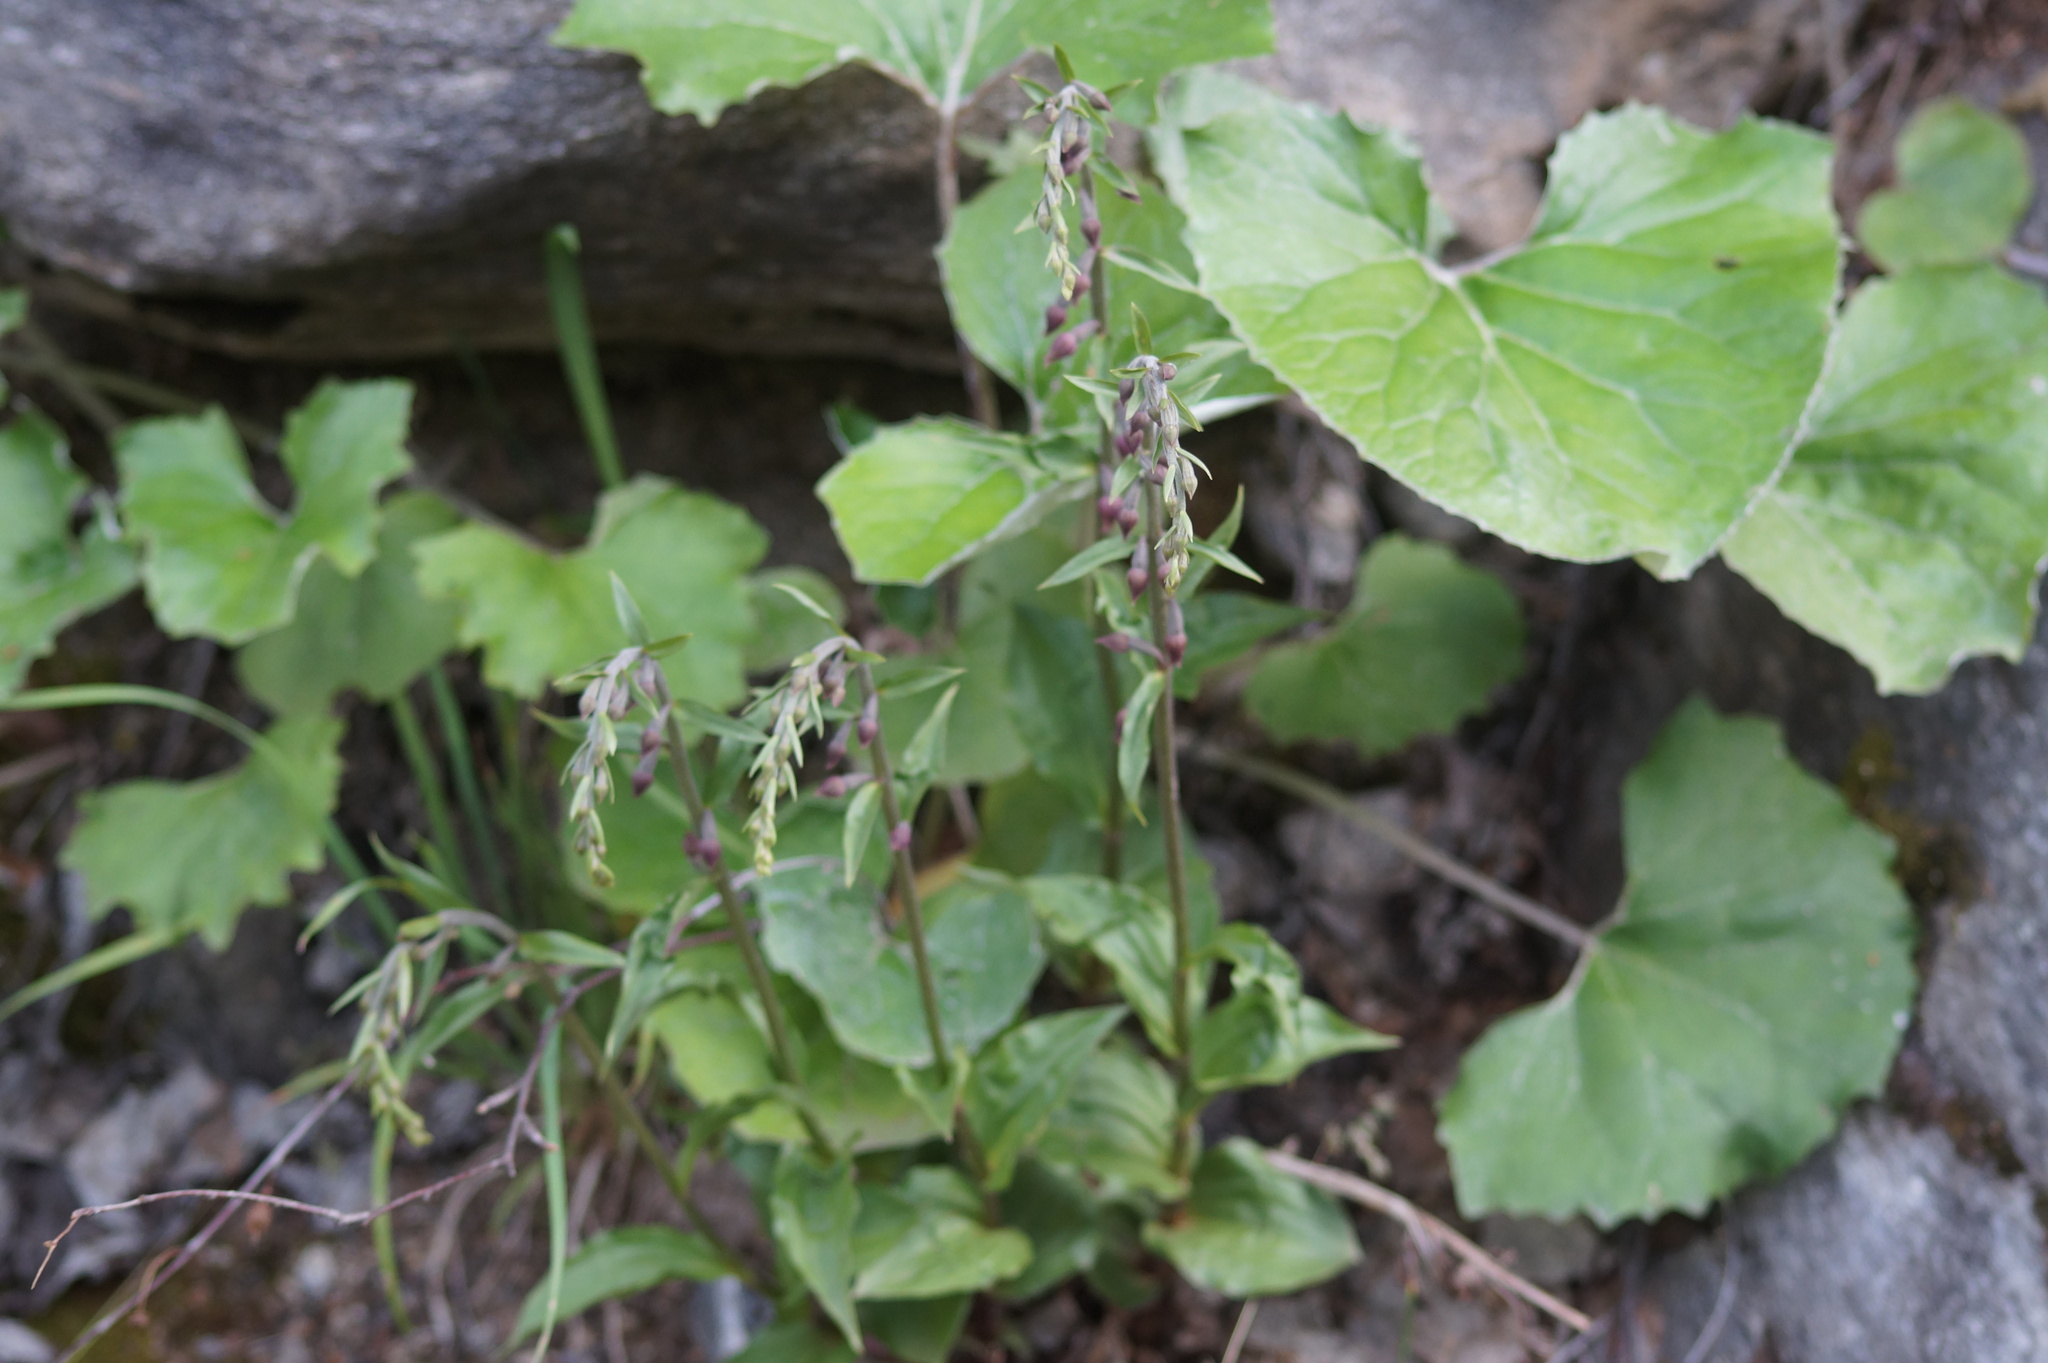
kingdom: Plantae
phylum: Tracheophyta
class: Liliopsida
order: Asparagales
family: Orchidaceae
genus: Epipactis
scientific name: Epipactis atrorubens
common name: Dark-red helleborine
